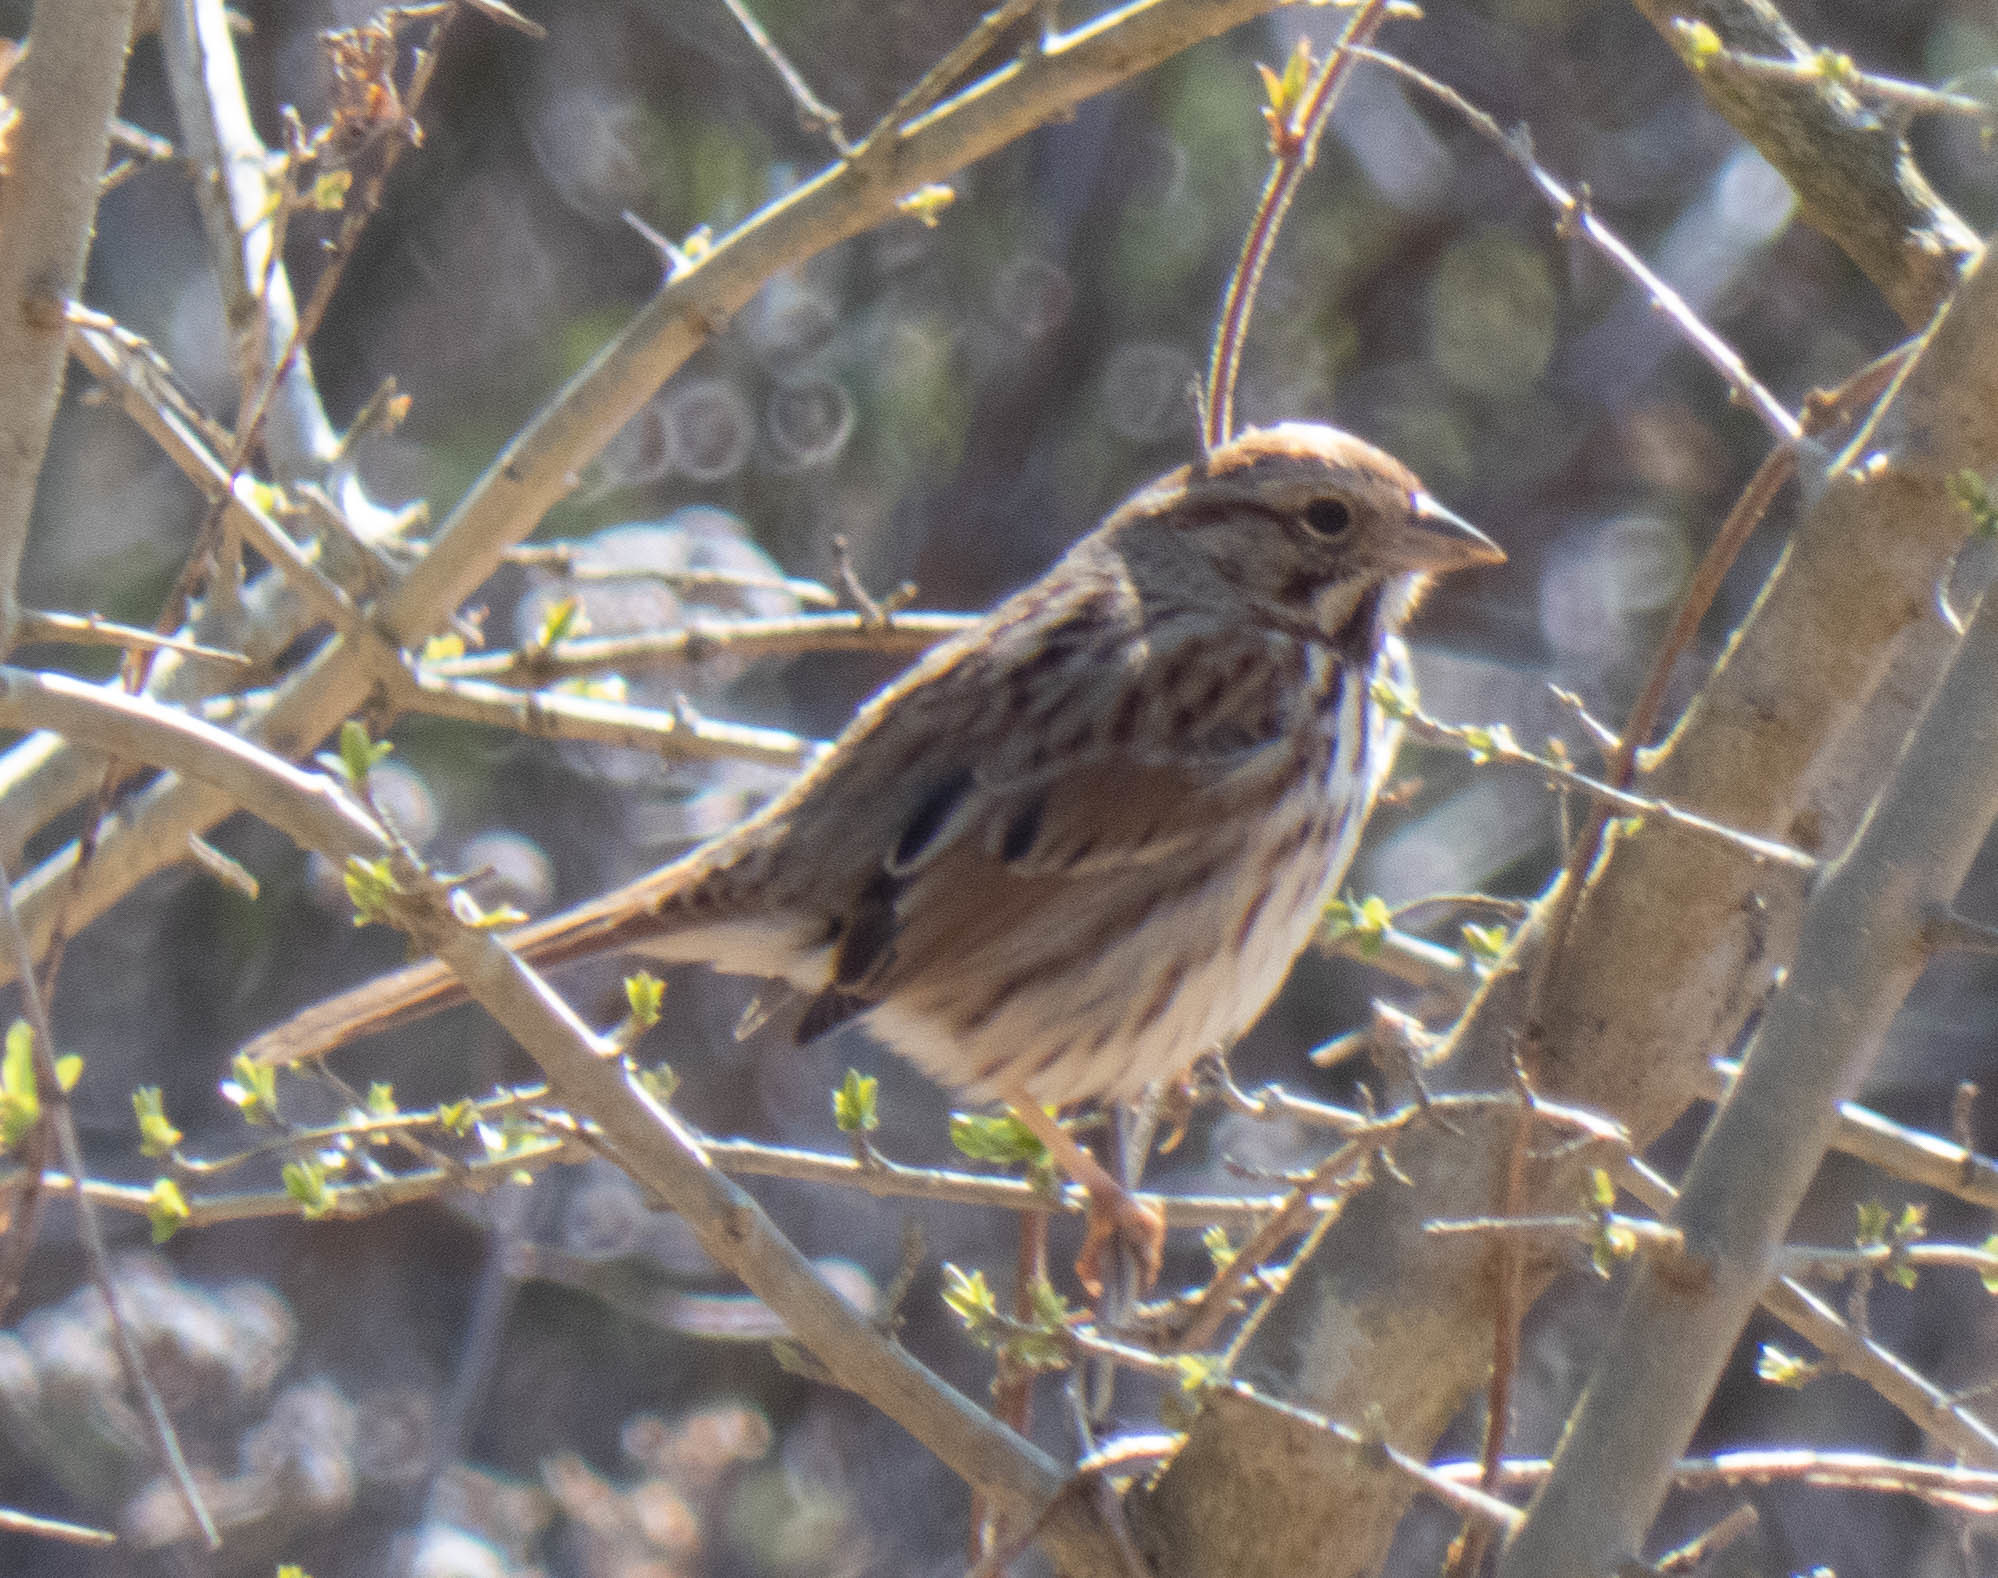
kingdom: Animalia
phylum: Chordata
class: Aves
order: Passeriformes
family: Passerellidae
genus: Melospiza
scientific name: Melospiza melodia
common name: Song sparrow
